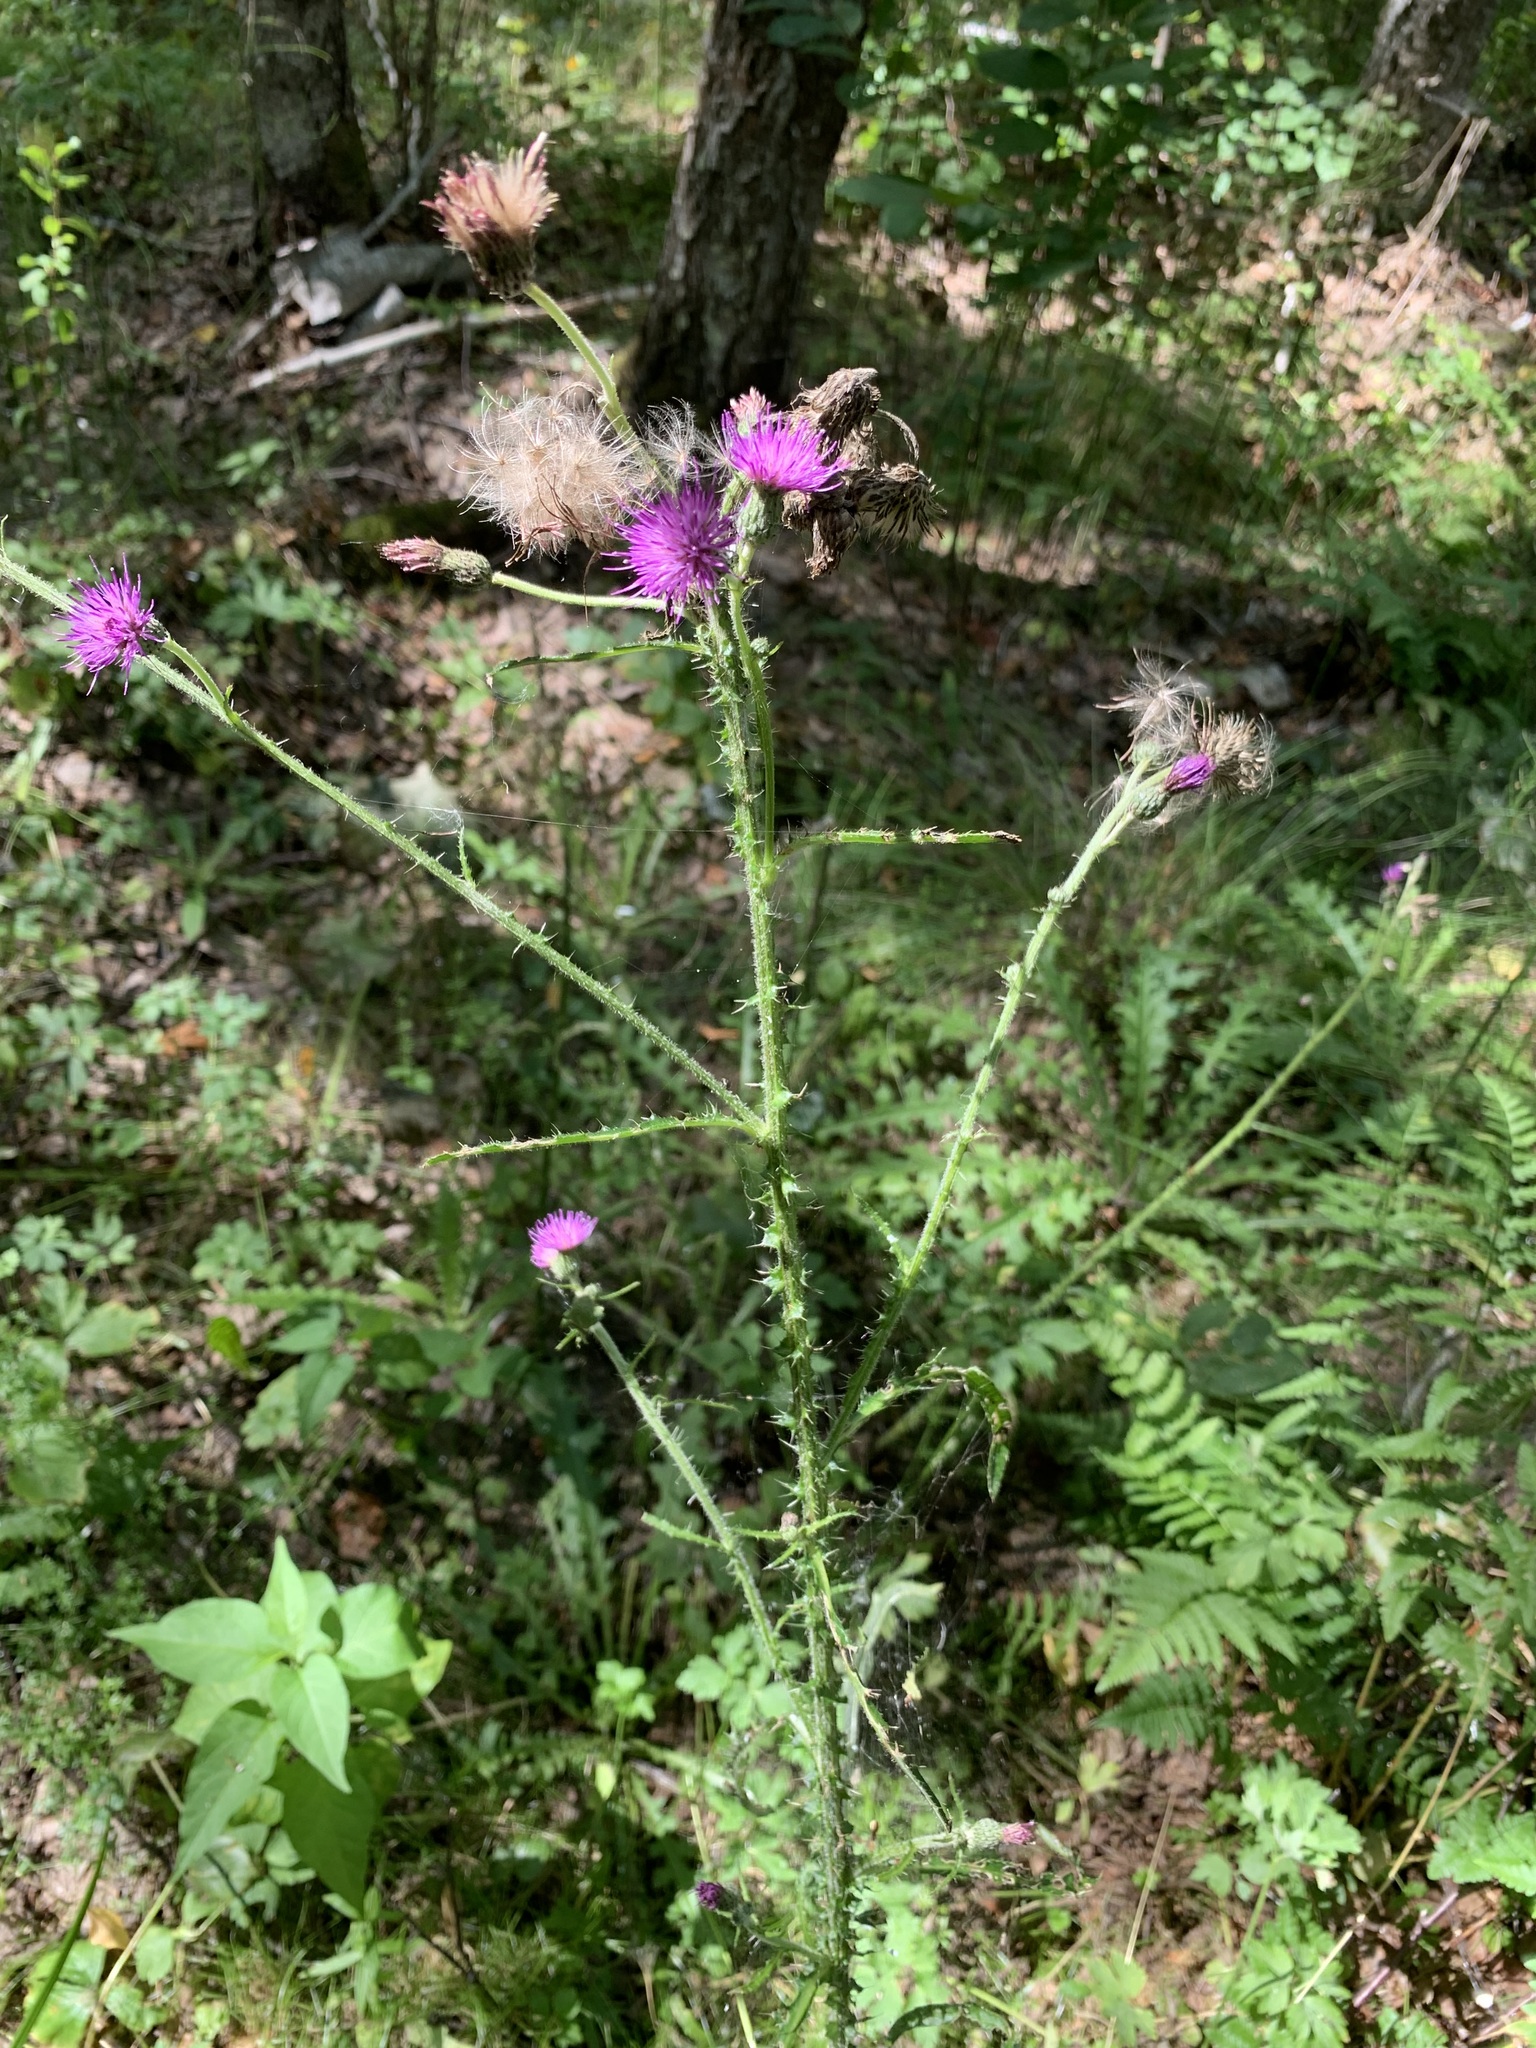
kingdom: Plantae
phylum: Tracheophyta
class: Magnoliopsida
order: Asterales
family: Asteraceae
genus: Cirsium
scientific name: Cirsium palustre
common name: Marsh thistle
